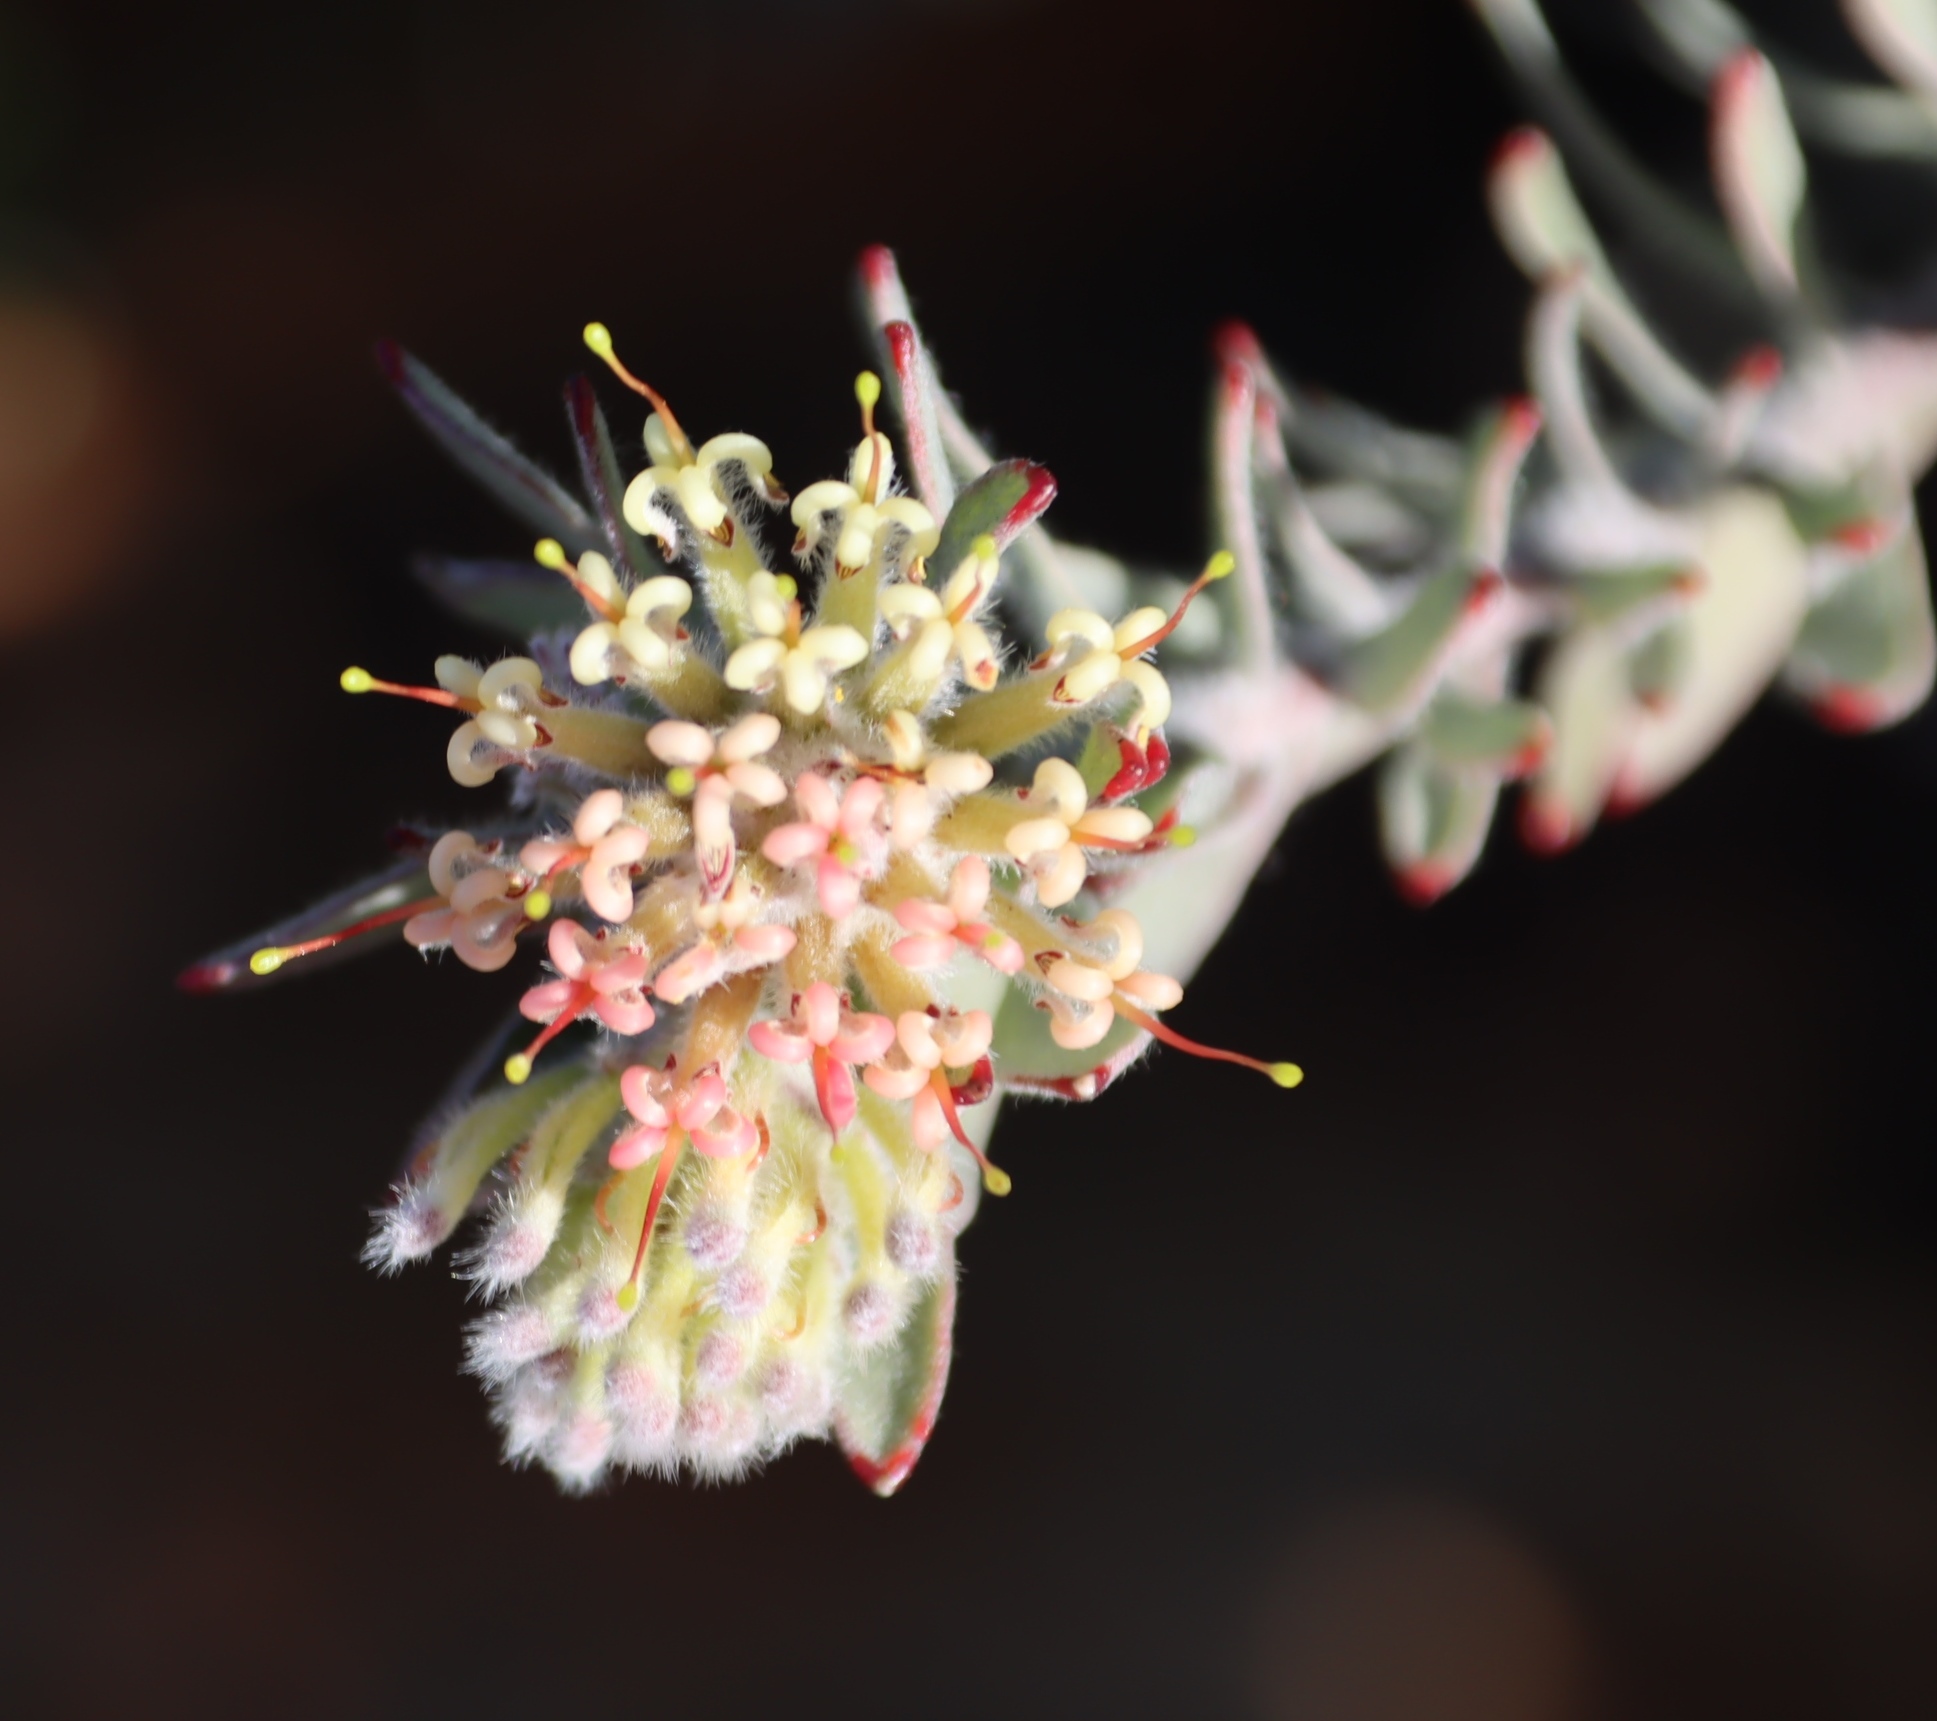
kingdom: Plantae
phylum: Tracheophyta
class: Magnoliopsida
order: Proteales
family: Proteaceae
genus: Leucospermum
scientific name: Leucospermum wittebergense
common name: Swartberg pincushion
